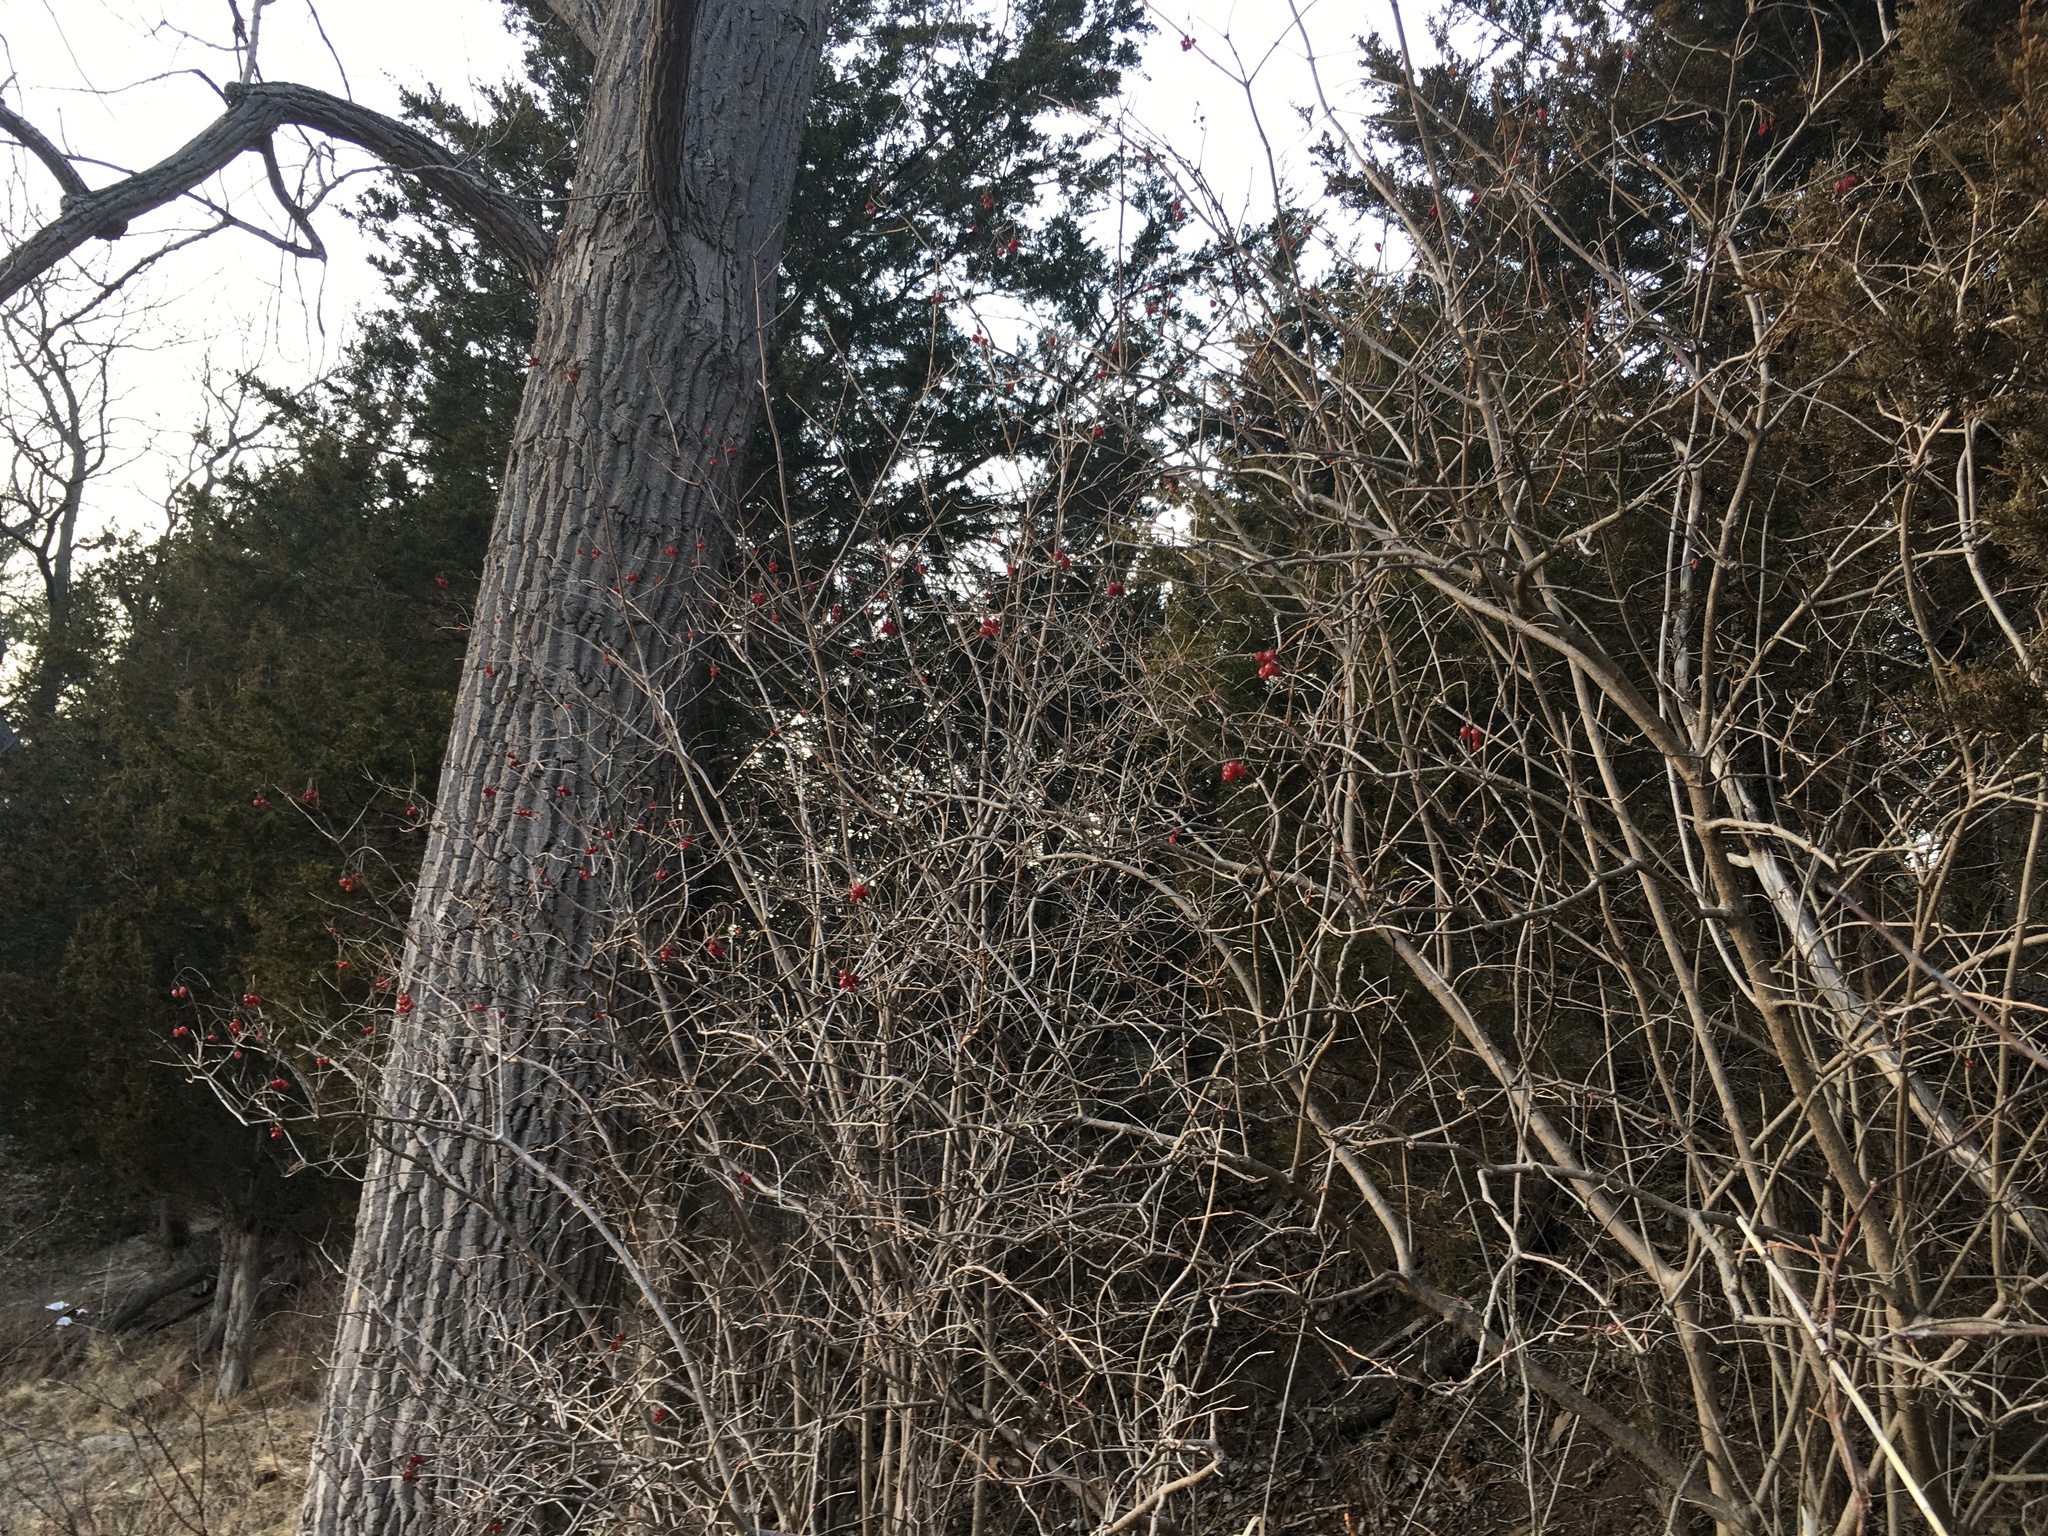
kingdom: Plantae
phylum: Tracheophyta
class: Magnoliopsida
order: Dipsacales
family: Viburnaceae
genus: Viburnum
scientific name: Viburnum opulus
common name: Guelder-rose
